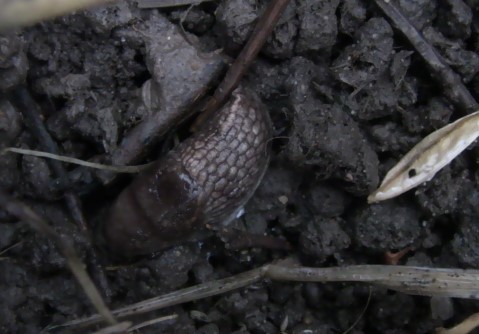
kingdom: Animalia
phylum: Mollusca
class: Gastropoda
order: Stylommatophora
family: Agriolimacidae
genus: Deroceras
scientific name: Deroceras reticulatum
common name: Gray field slug
